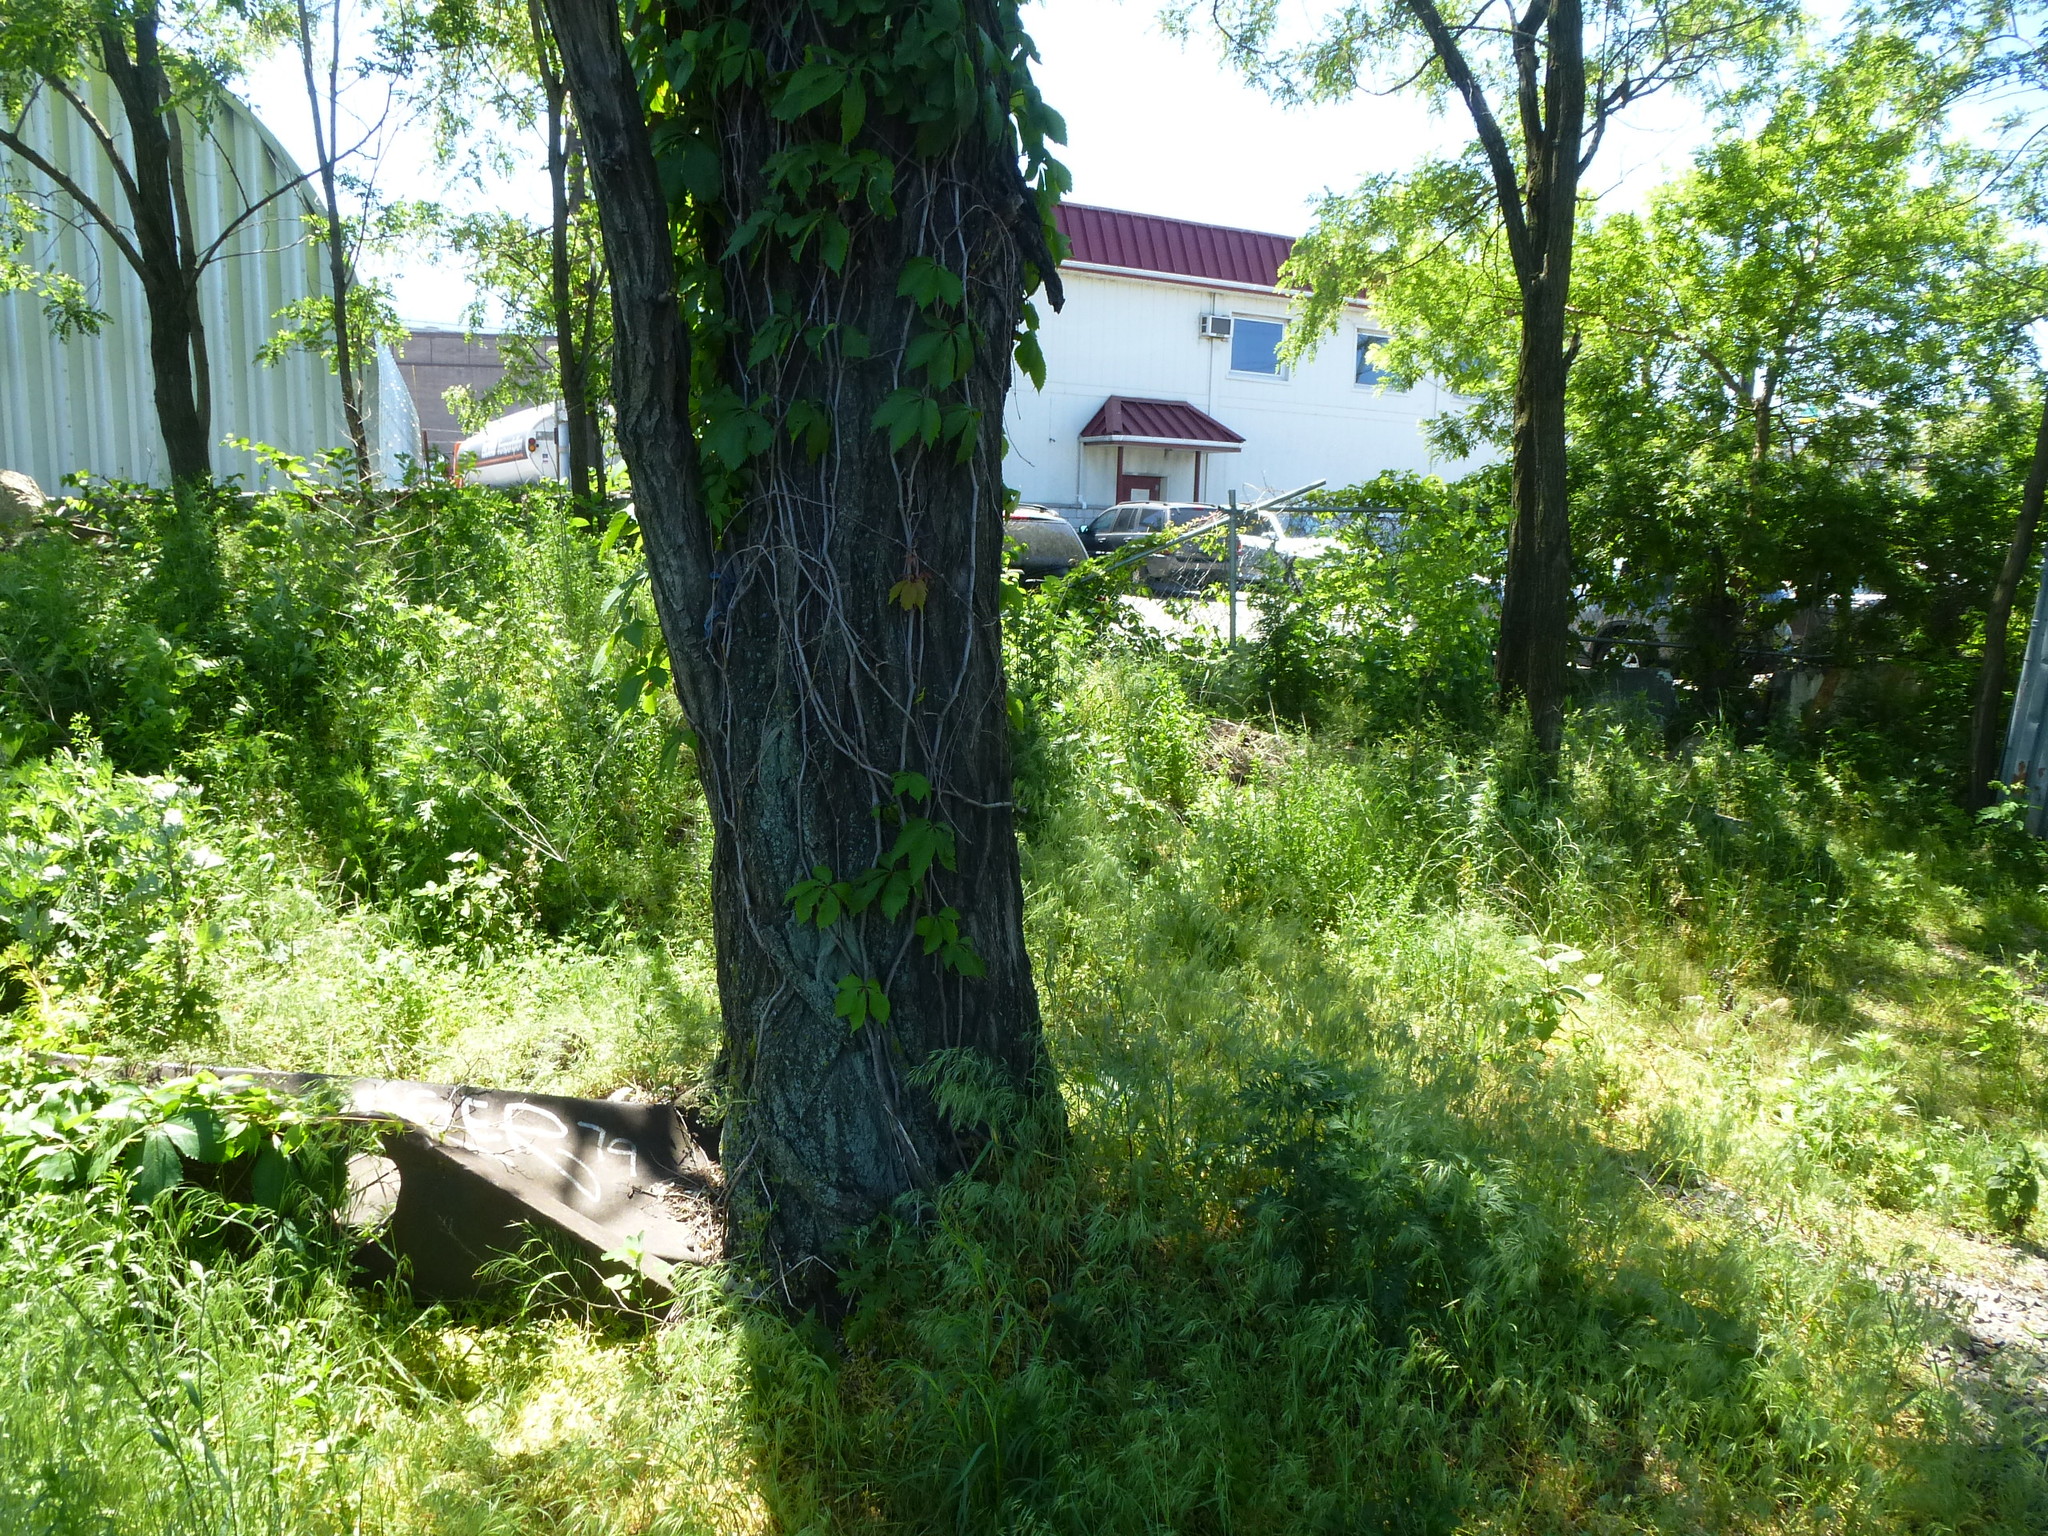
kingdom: Plantae
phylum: Tracheophyta
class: Magnoliopsida
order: Vitales
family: Vitaceae
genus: Parthenocissus
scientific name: Parthenocissus quinquefolia
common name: Virginia-creeper
